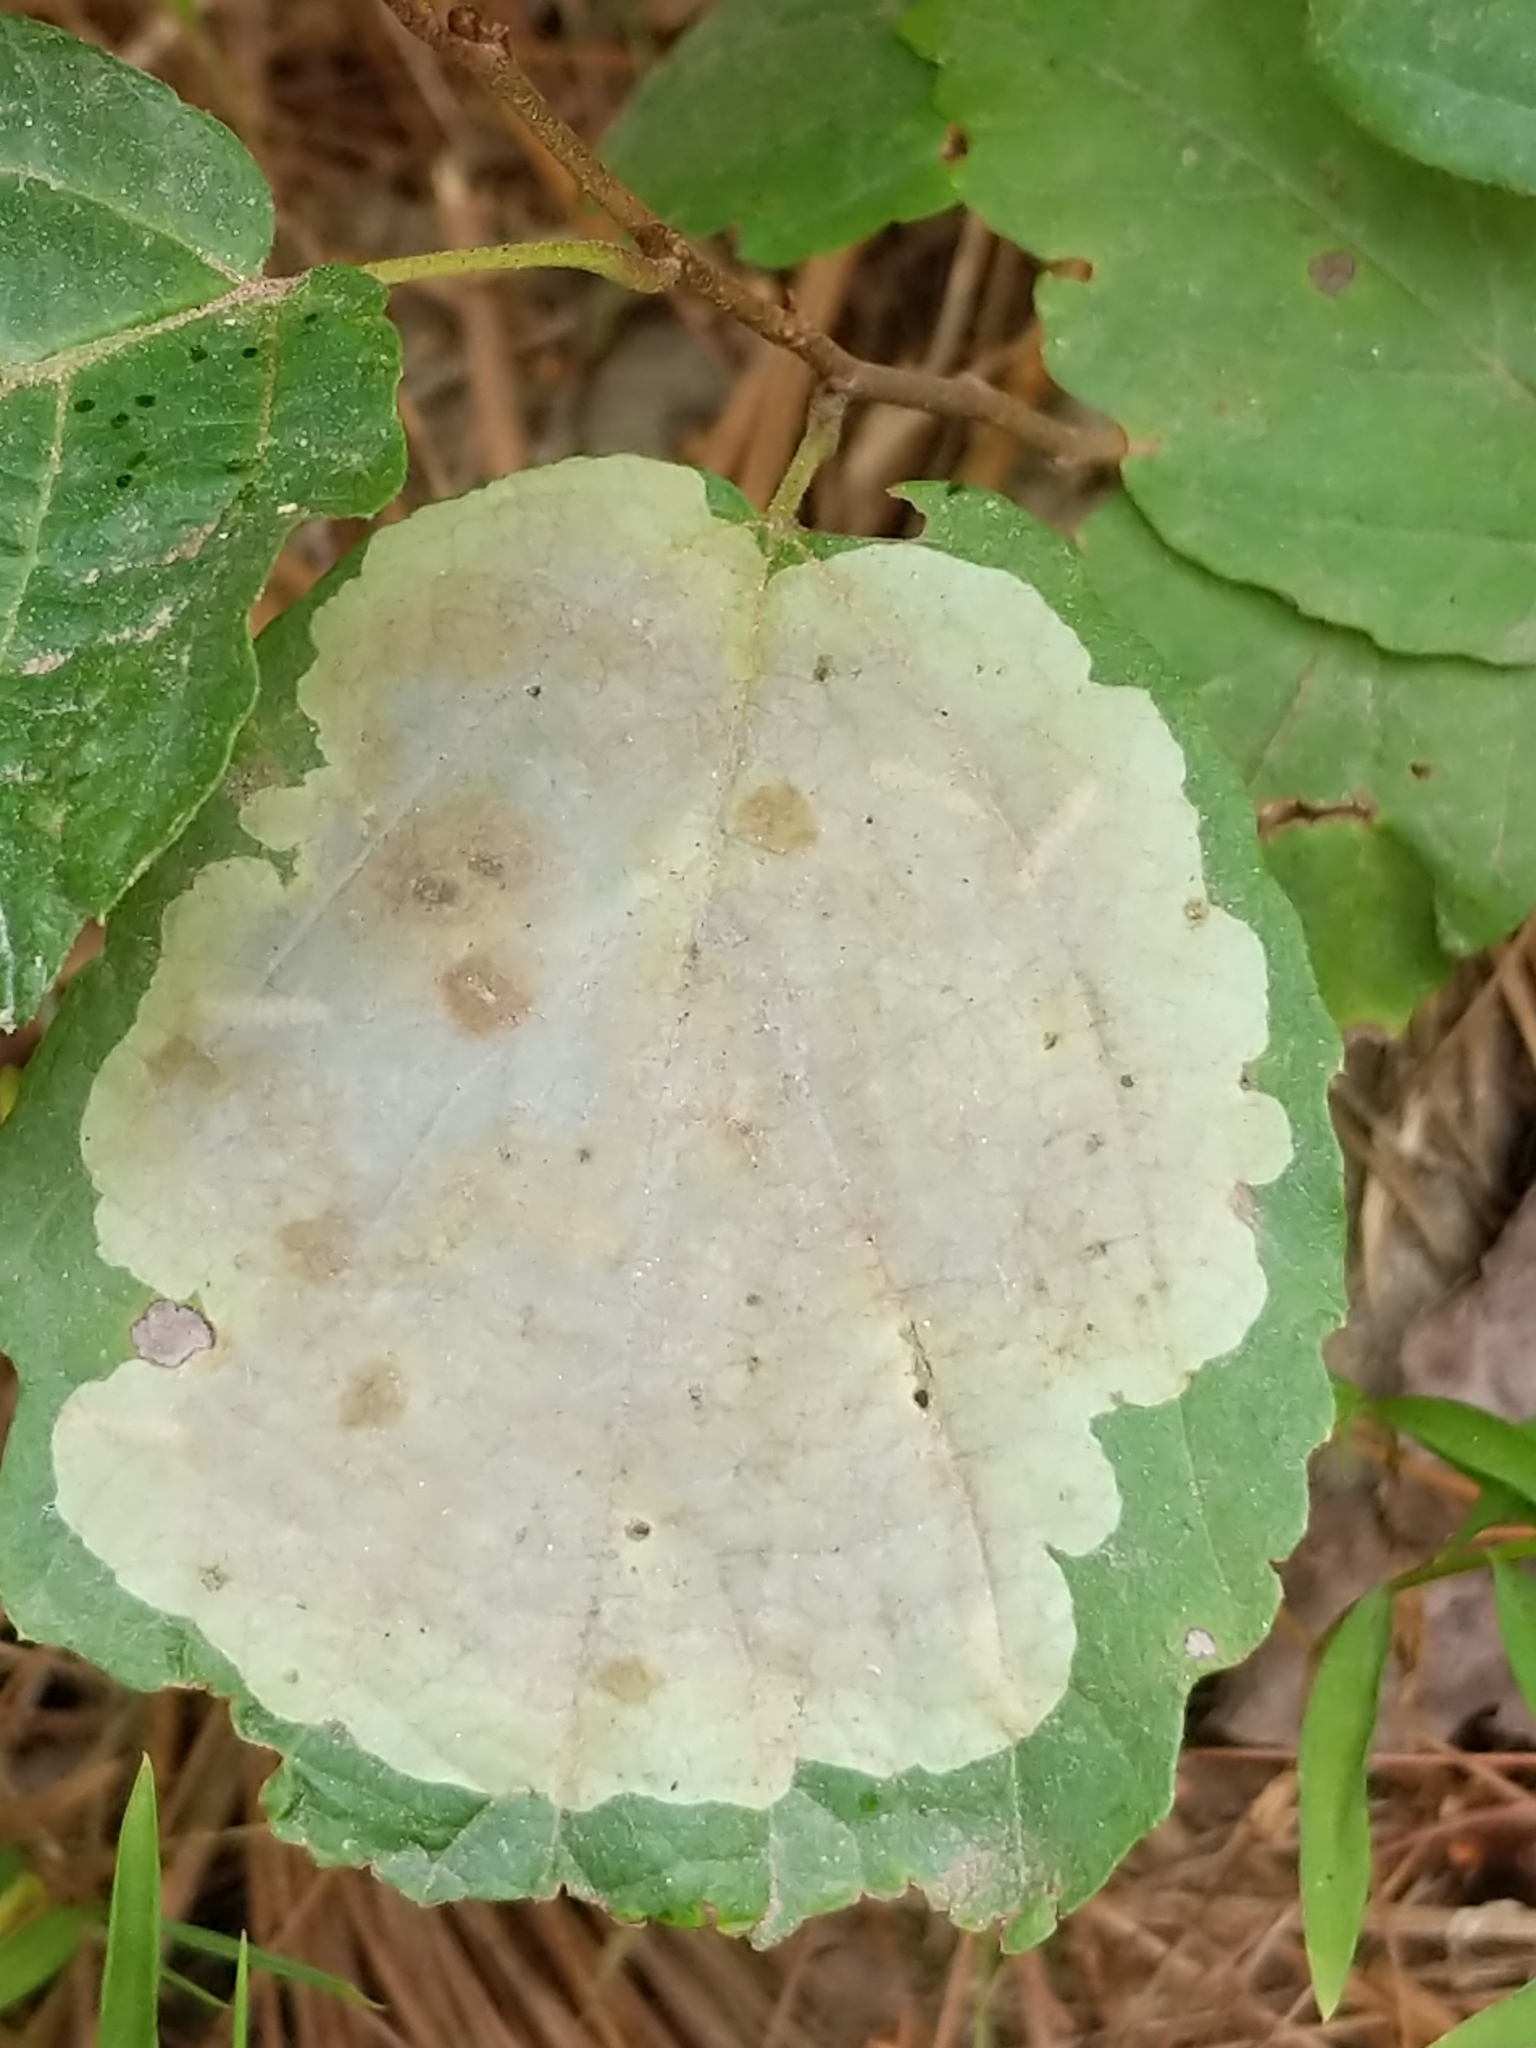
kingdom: Animalia
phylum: Arthropoda
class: Insecta
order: Lepidoptera
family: Gracillariidae
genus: Cameraria
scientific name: Cameraria hamameliella
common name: Witchhazel leafminer
